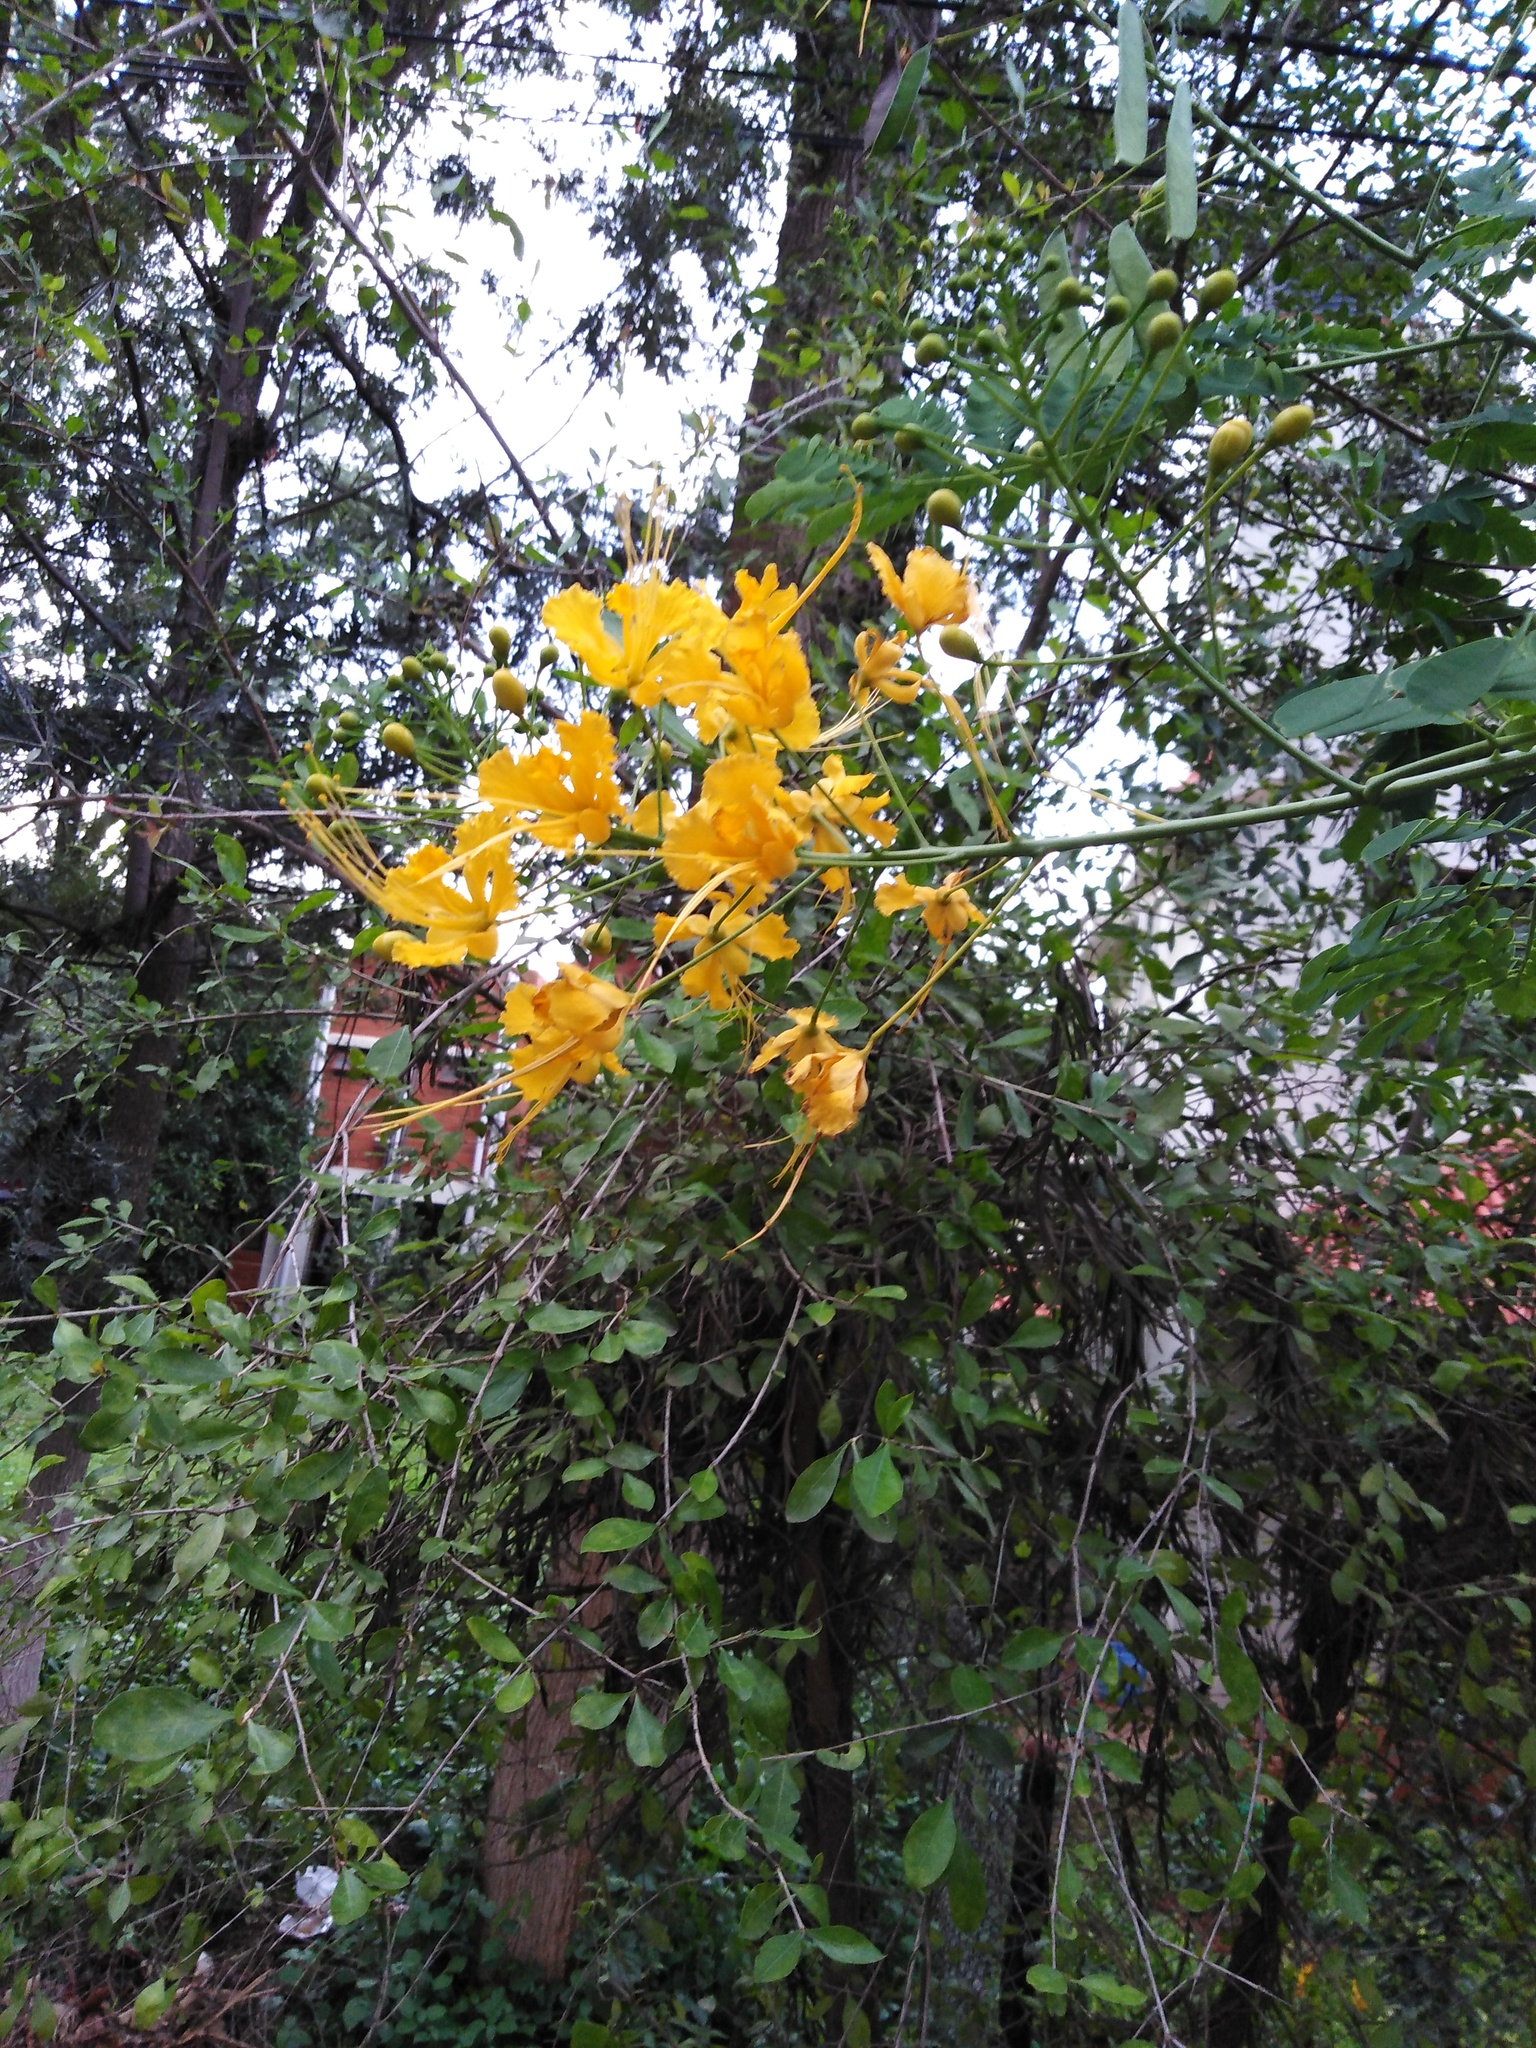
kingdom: Plantae
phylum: Tracheophyta
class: Magnoliopsida
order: Fabales
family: Fabaceae
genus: Caesalpinia
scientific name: Caesalpinia pulcherrima
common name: Pride-of-barbados
